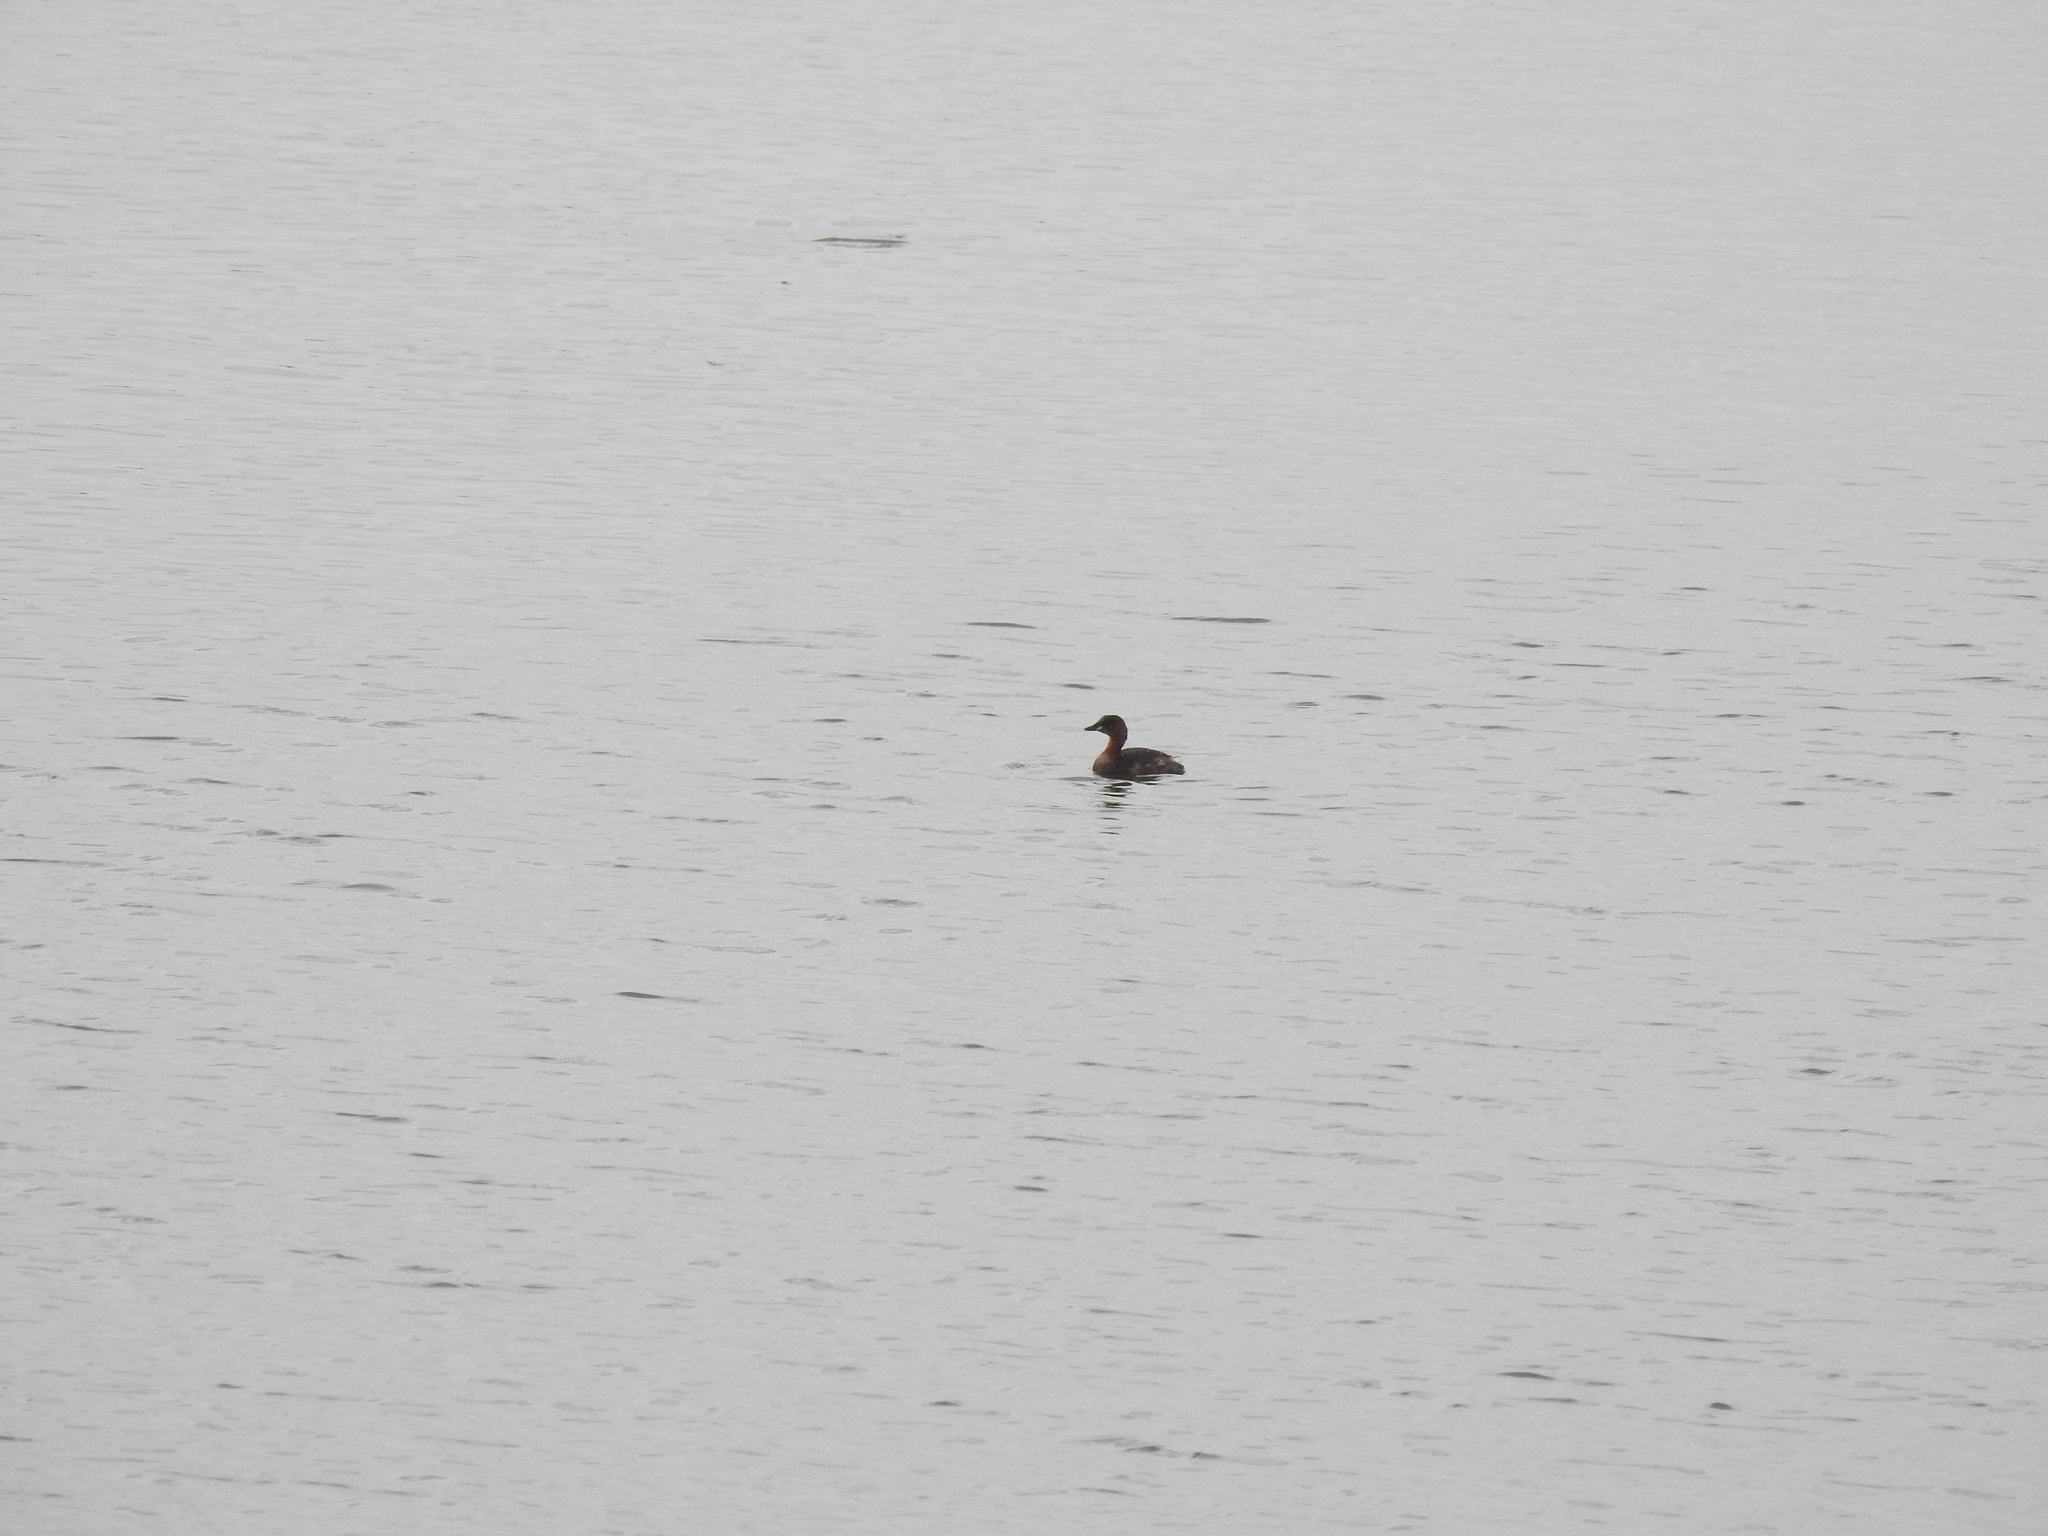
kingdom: Animalia
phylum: Chordata
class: Aves
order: Podicipediformes
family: Podicipedidae
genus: Tachybaptus
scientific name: Tachybaptus ruficollis
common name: Little grebe
